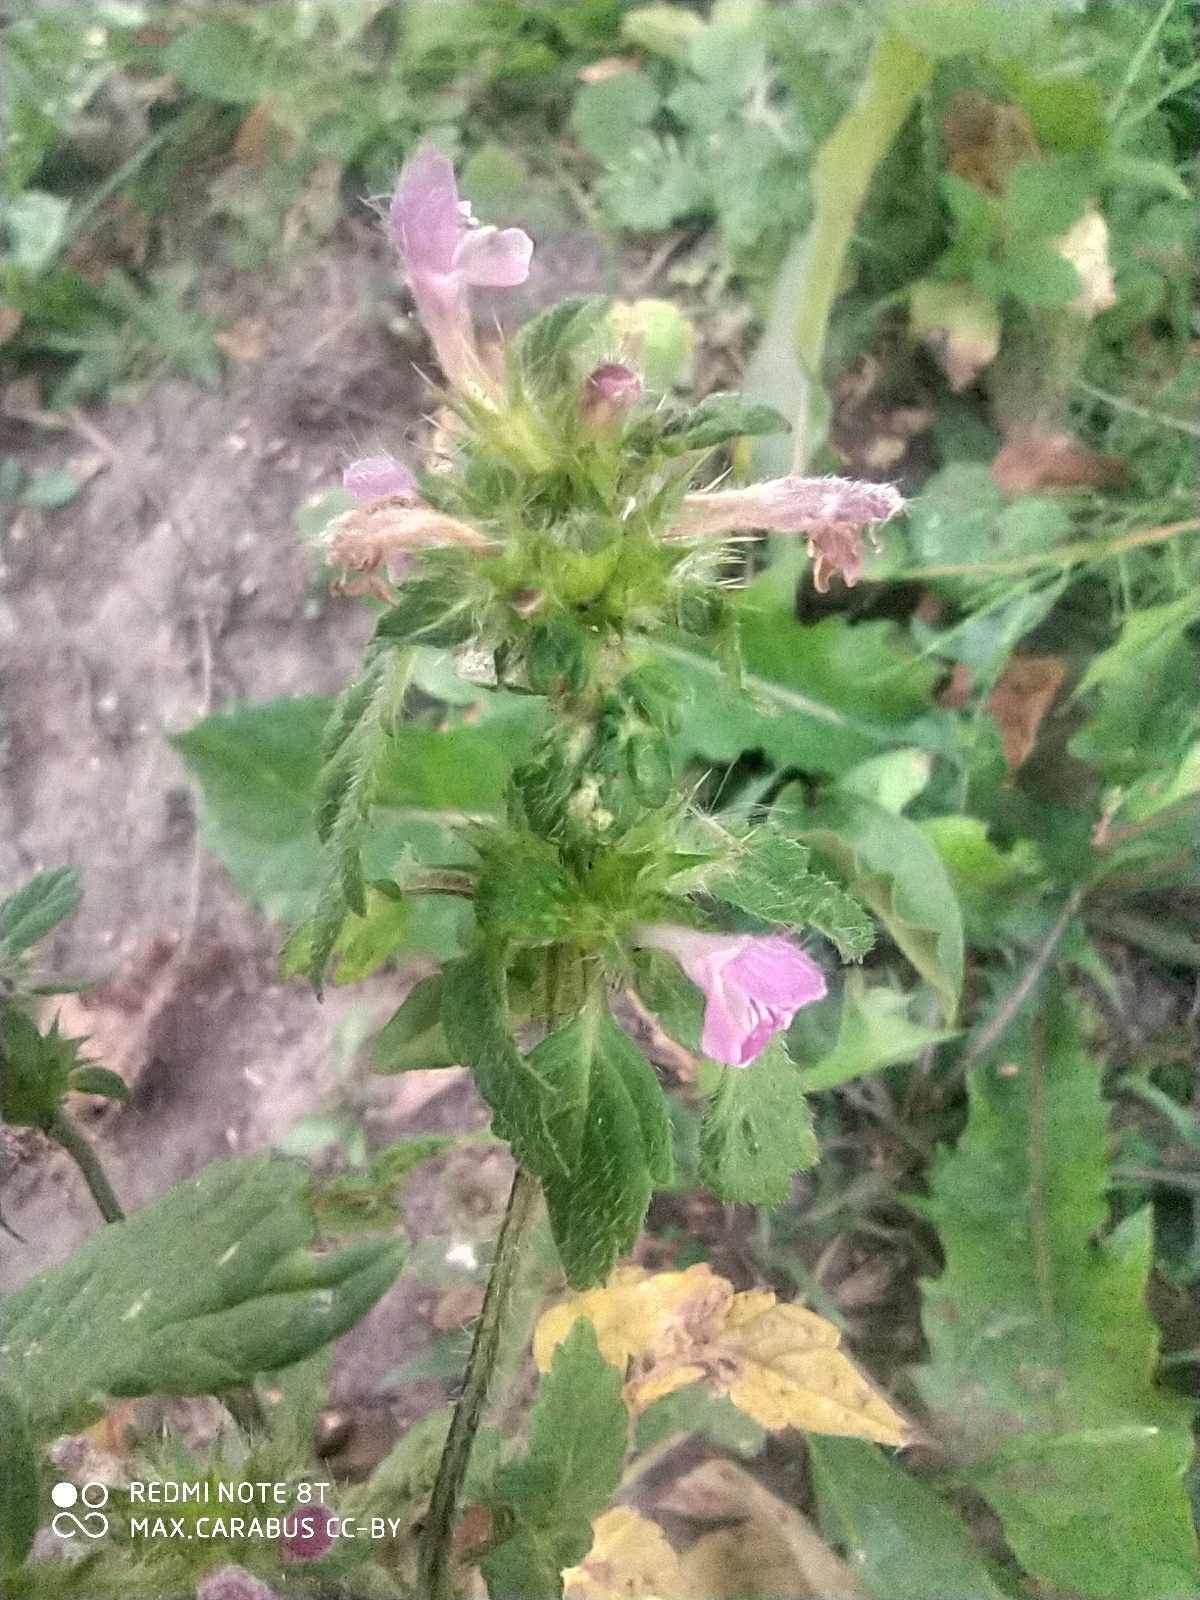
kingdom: Plantae
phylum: Tracheophyta
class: Magnoliopsida
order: Lamiales
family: Lamiaceae
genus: Galeopsis
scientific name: Galeopsis bifida
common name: Bifid hemp-nettle
